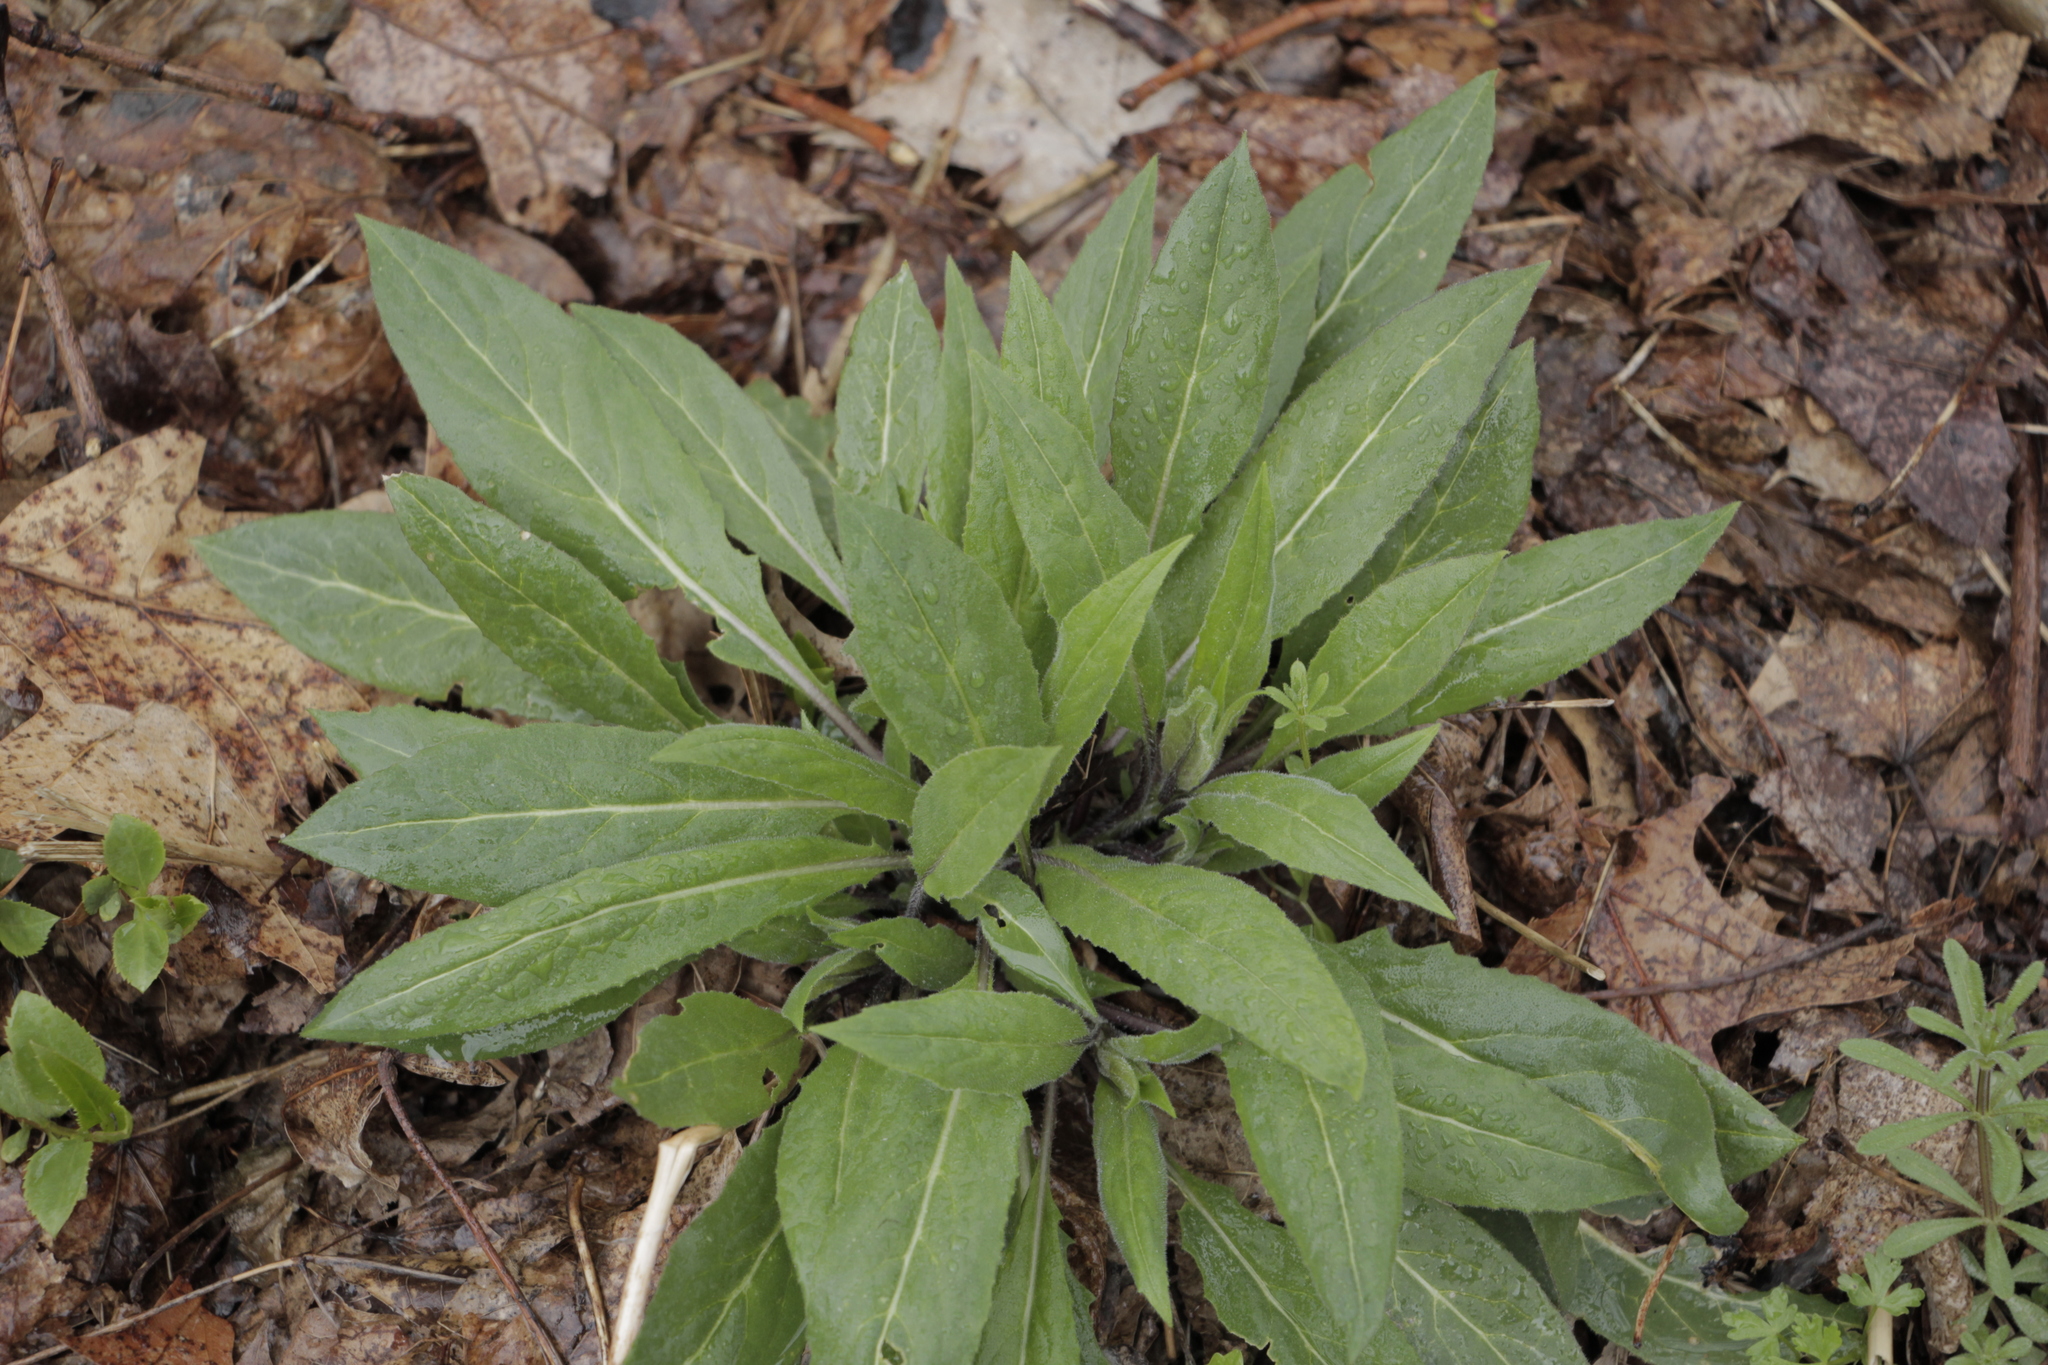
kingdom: Plantae
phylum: Tracheophyta
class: Magnoliopsida
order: Brassicales
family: Brassicaceae
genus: Hesperis
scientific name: Hesperis matronalis
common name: Dame's-violet
